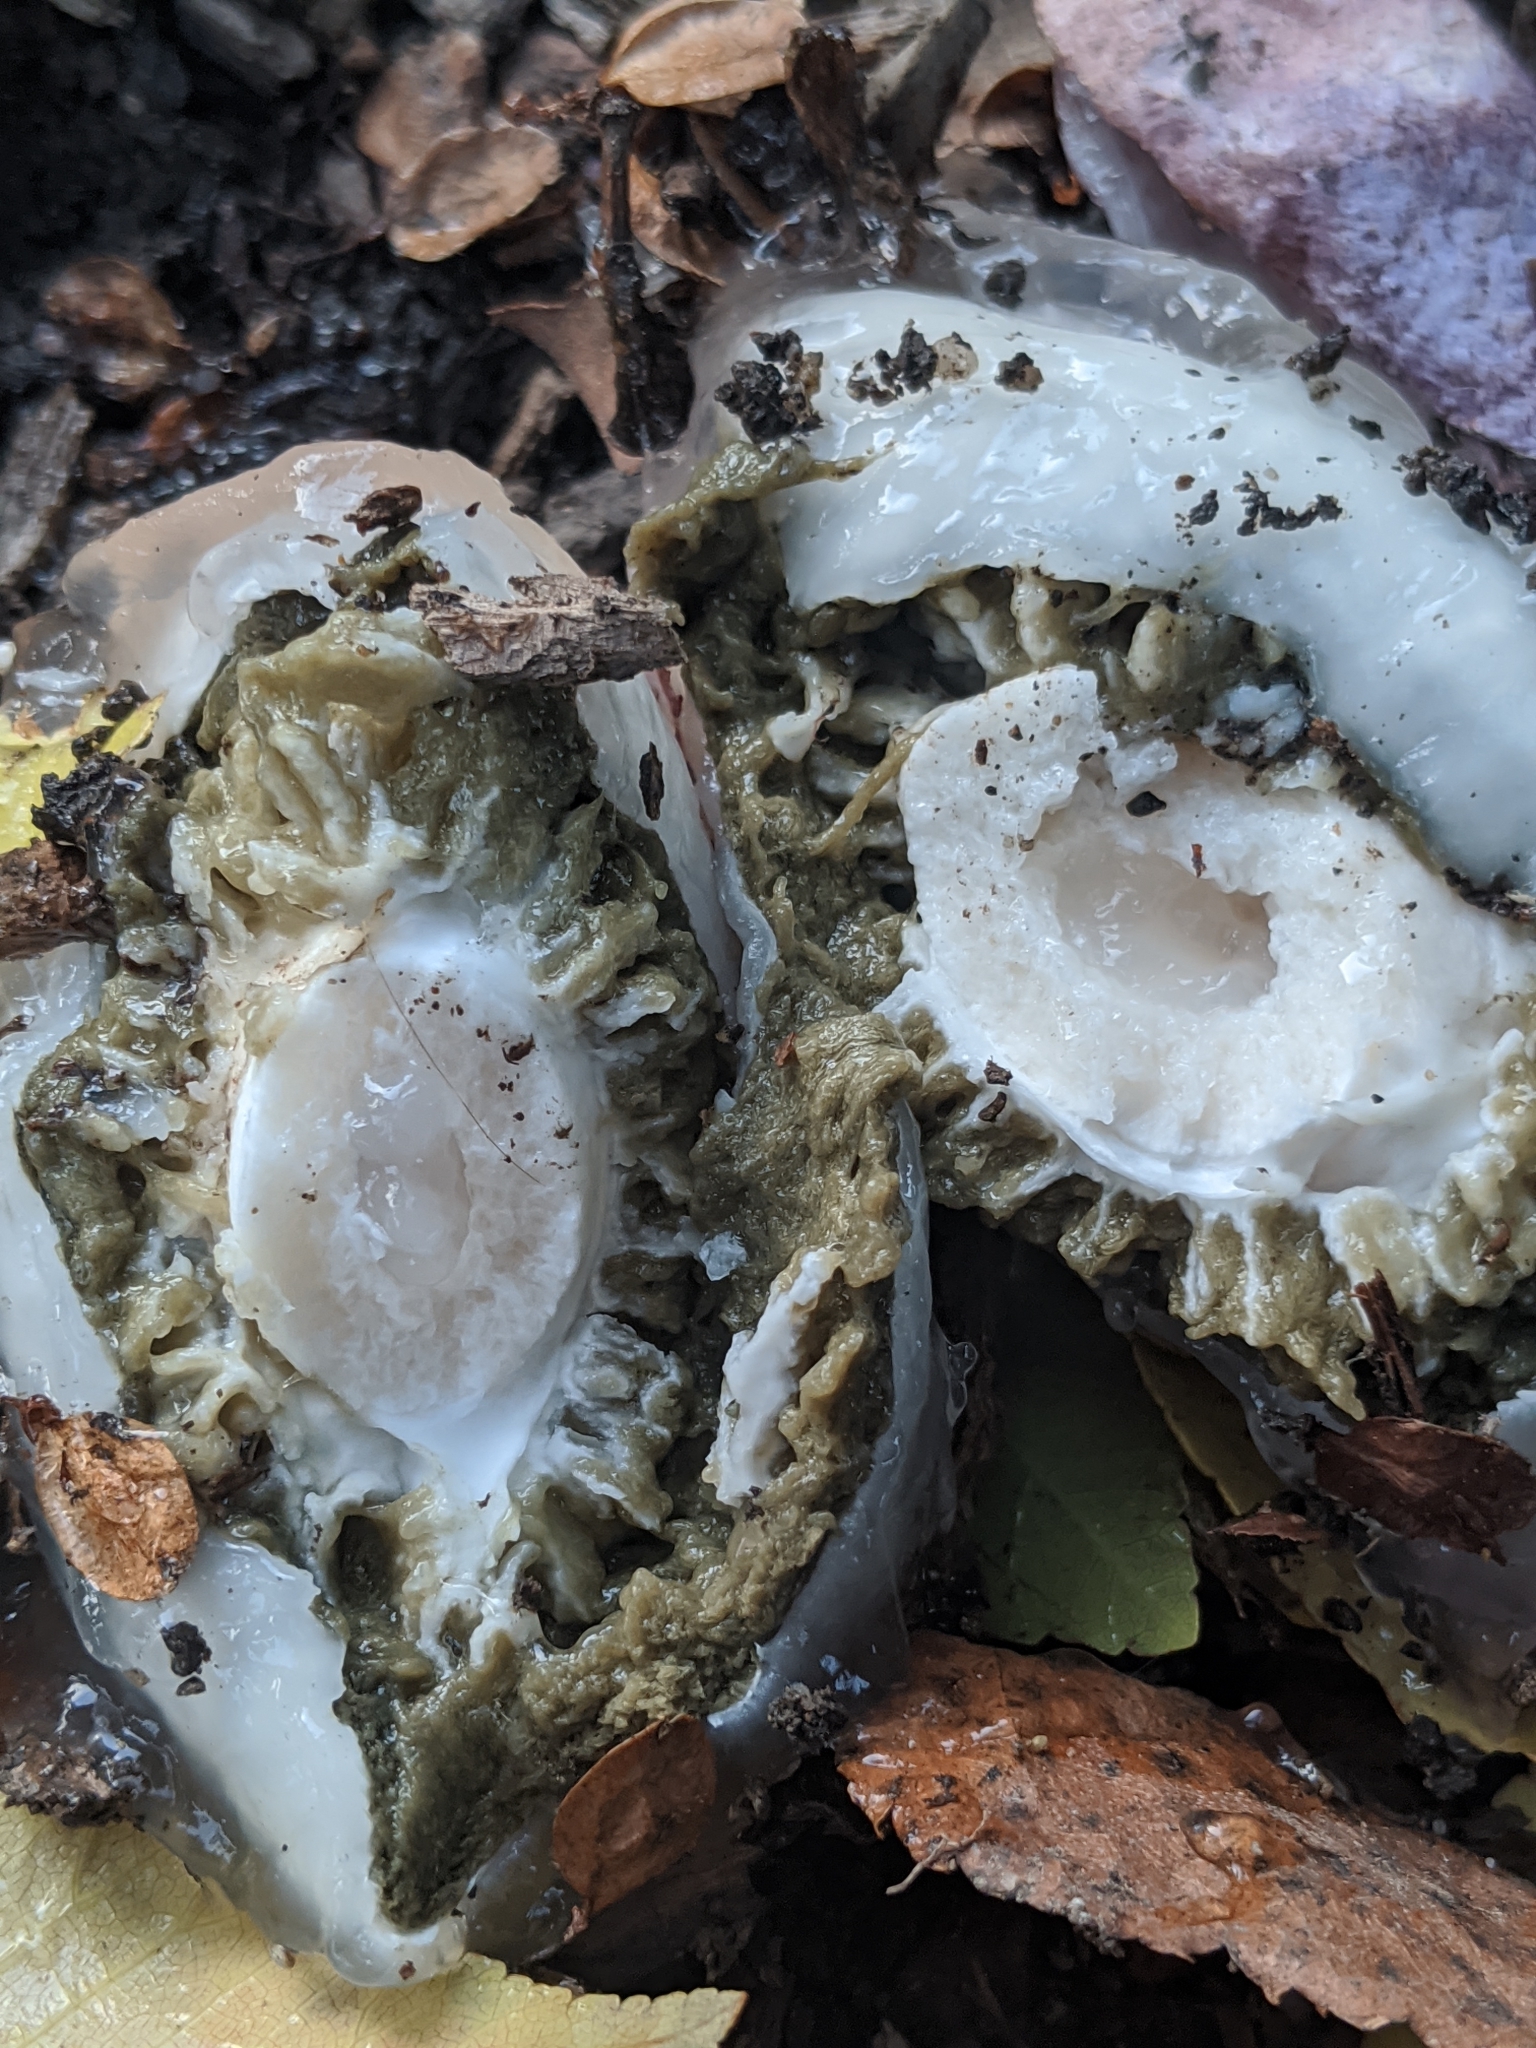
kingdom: Fungi
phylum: Basidiomycota
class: Agaricomycetes
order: Phallales
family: Phallaceae
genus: Phallus
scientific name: Phallus hadriani
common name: Sand stinkhorn
